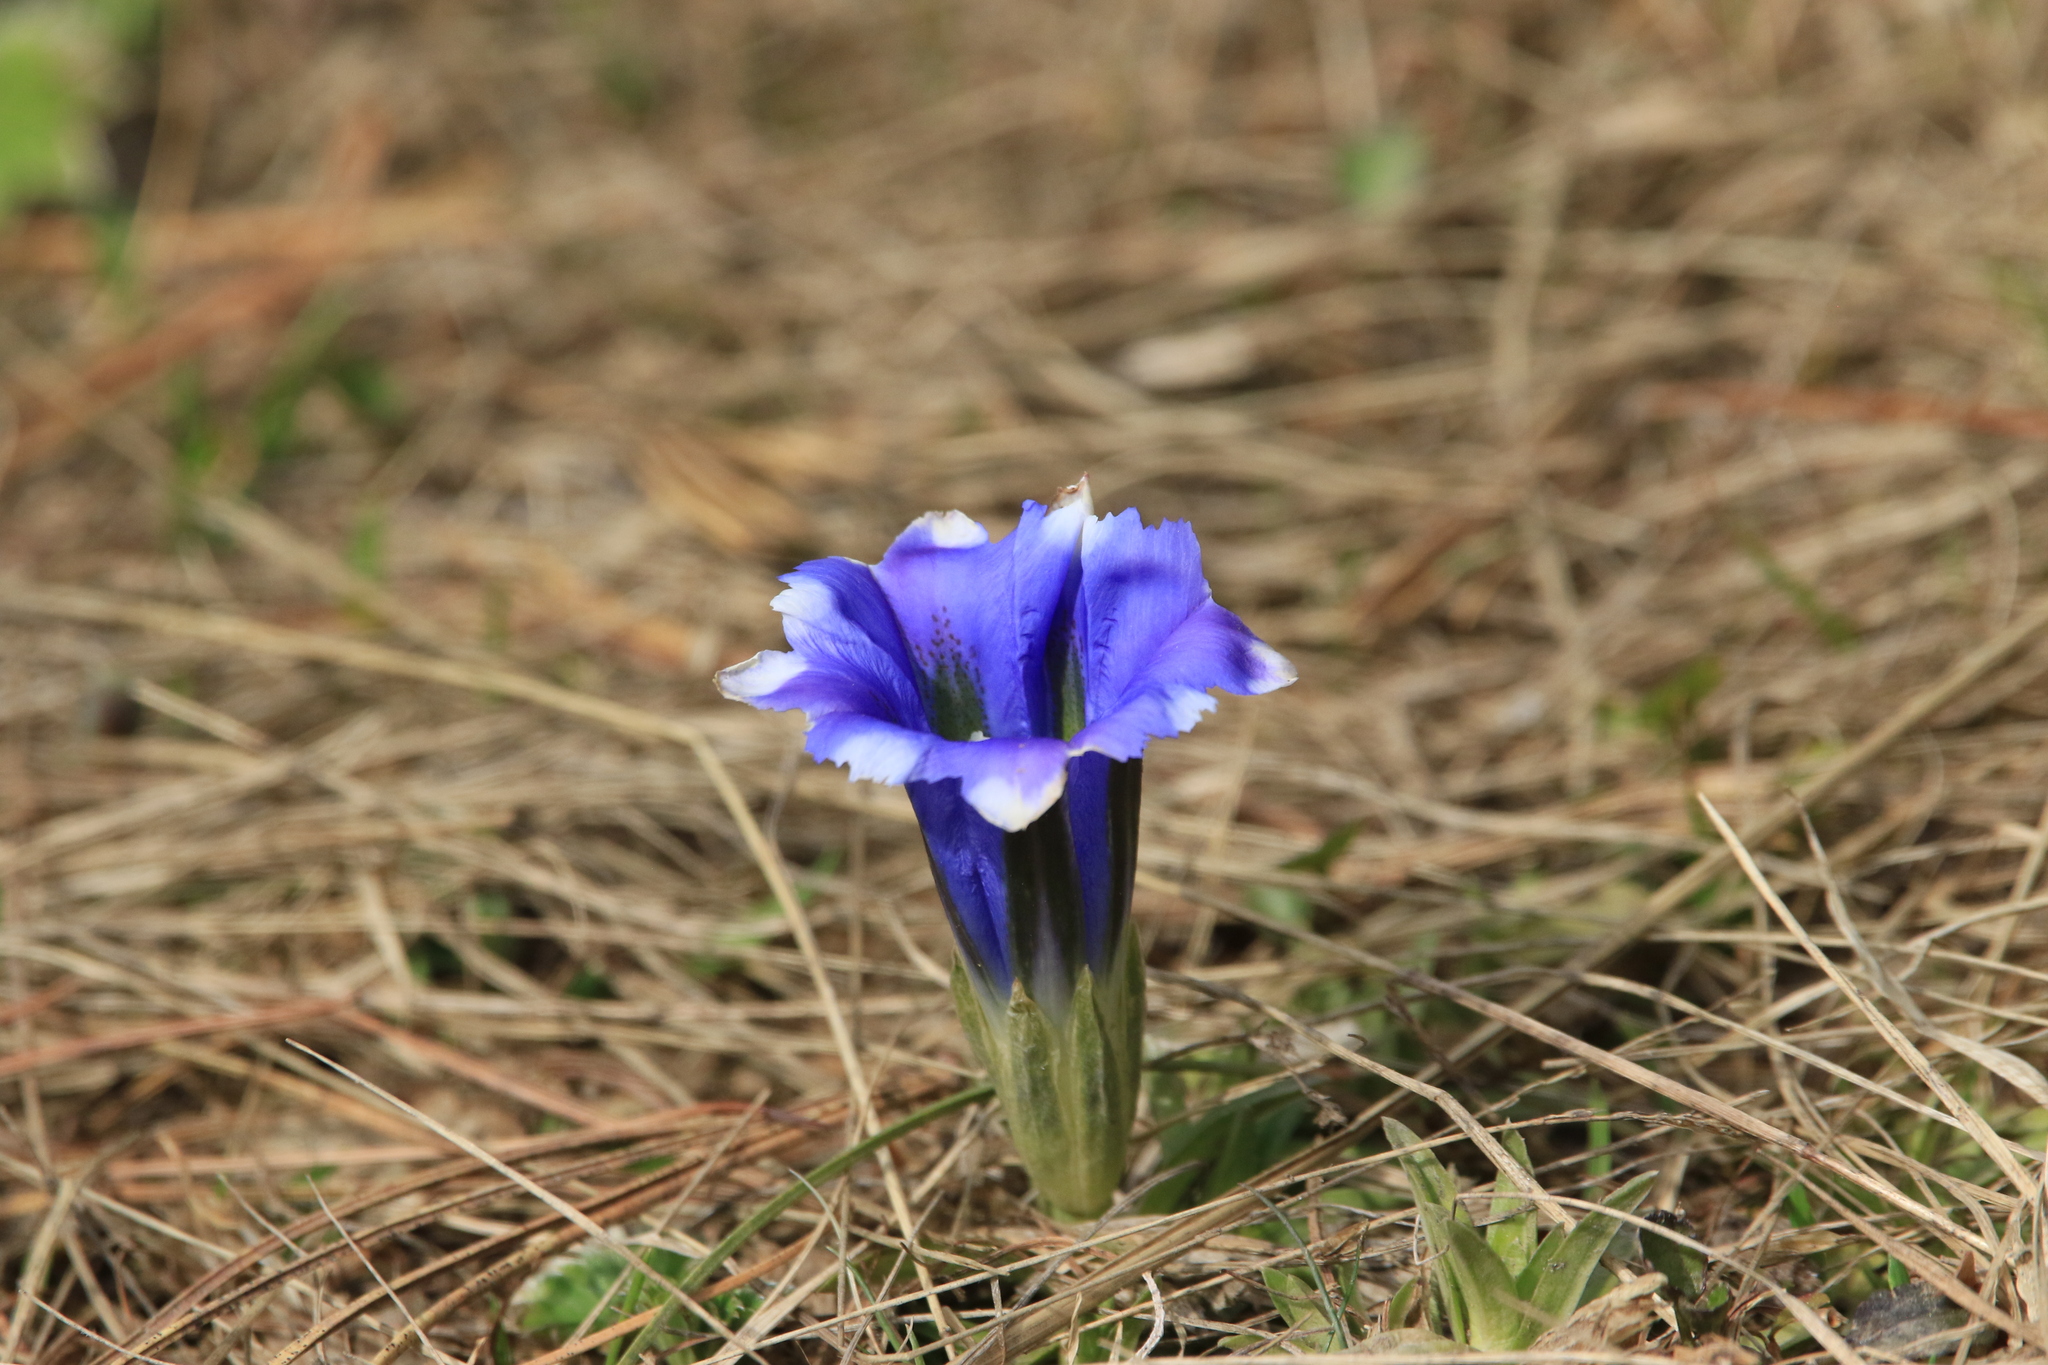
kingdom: Plantae
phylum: Tracheophyta
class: Magnoliopsida
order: Gentianales
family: Gentianaceae
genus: Gentiana
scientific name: Gentiana grandiflora
